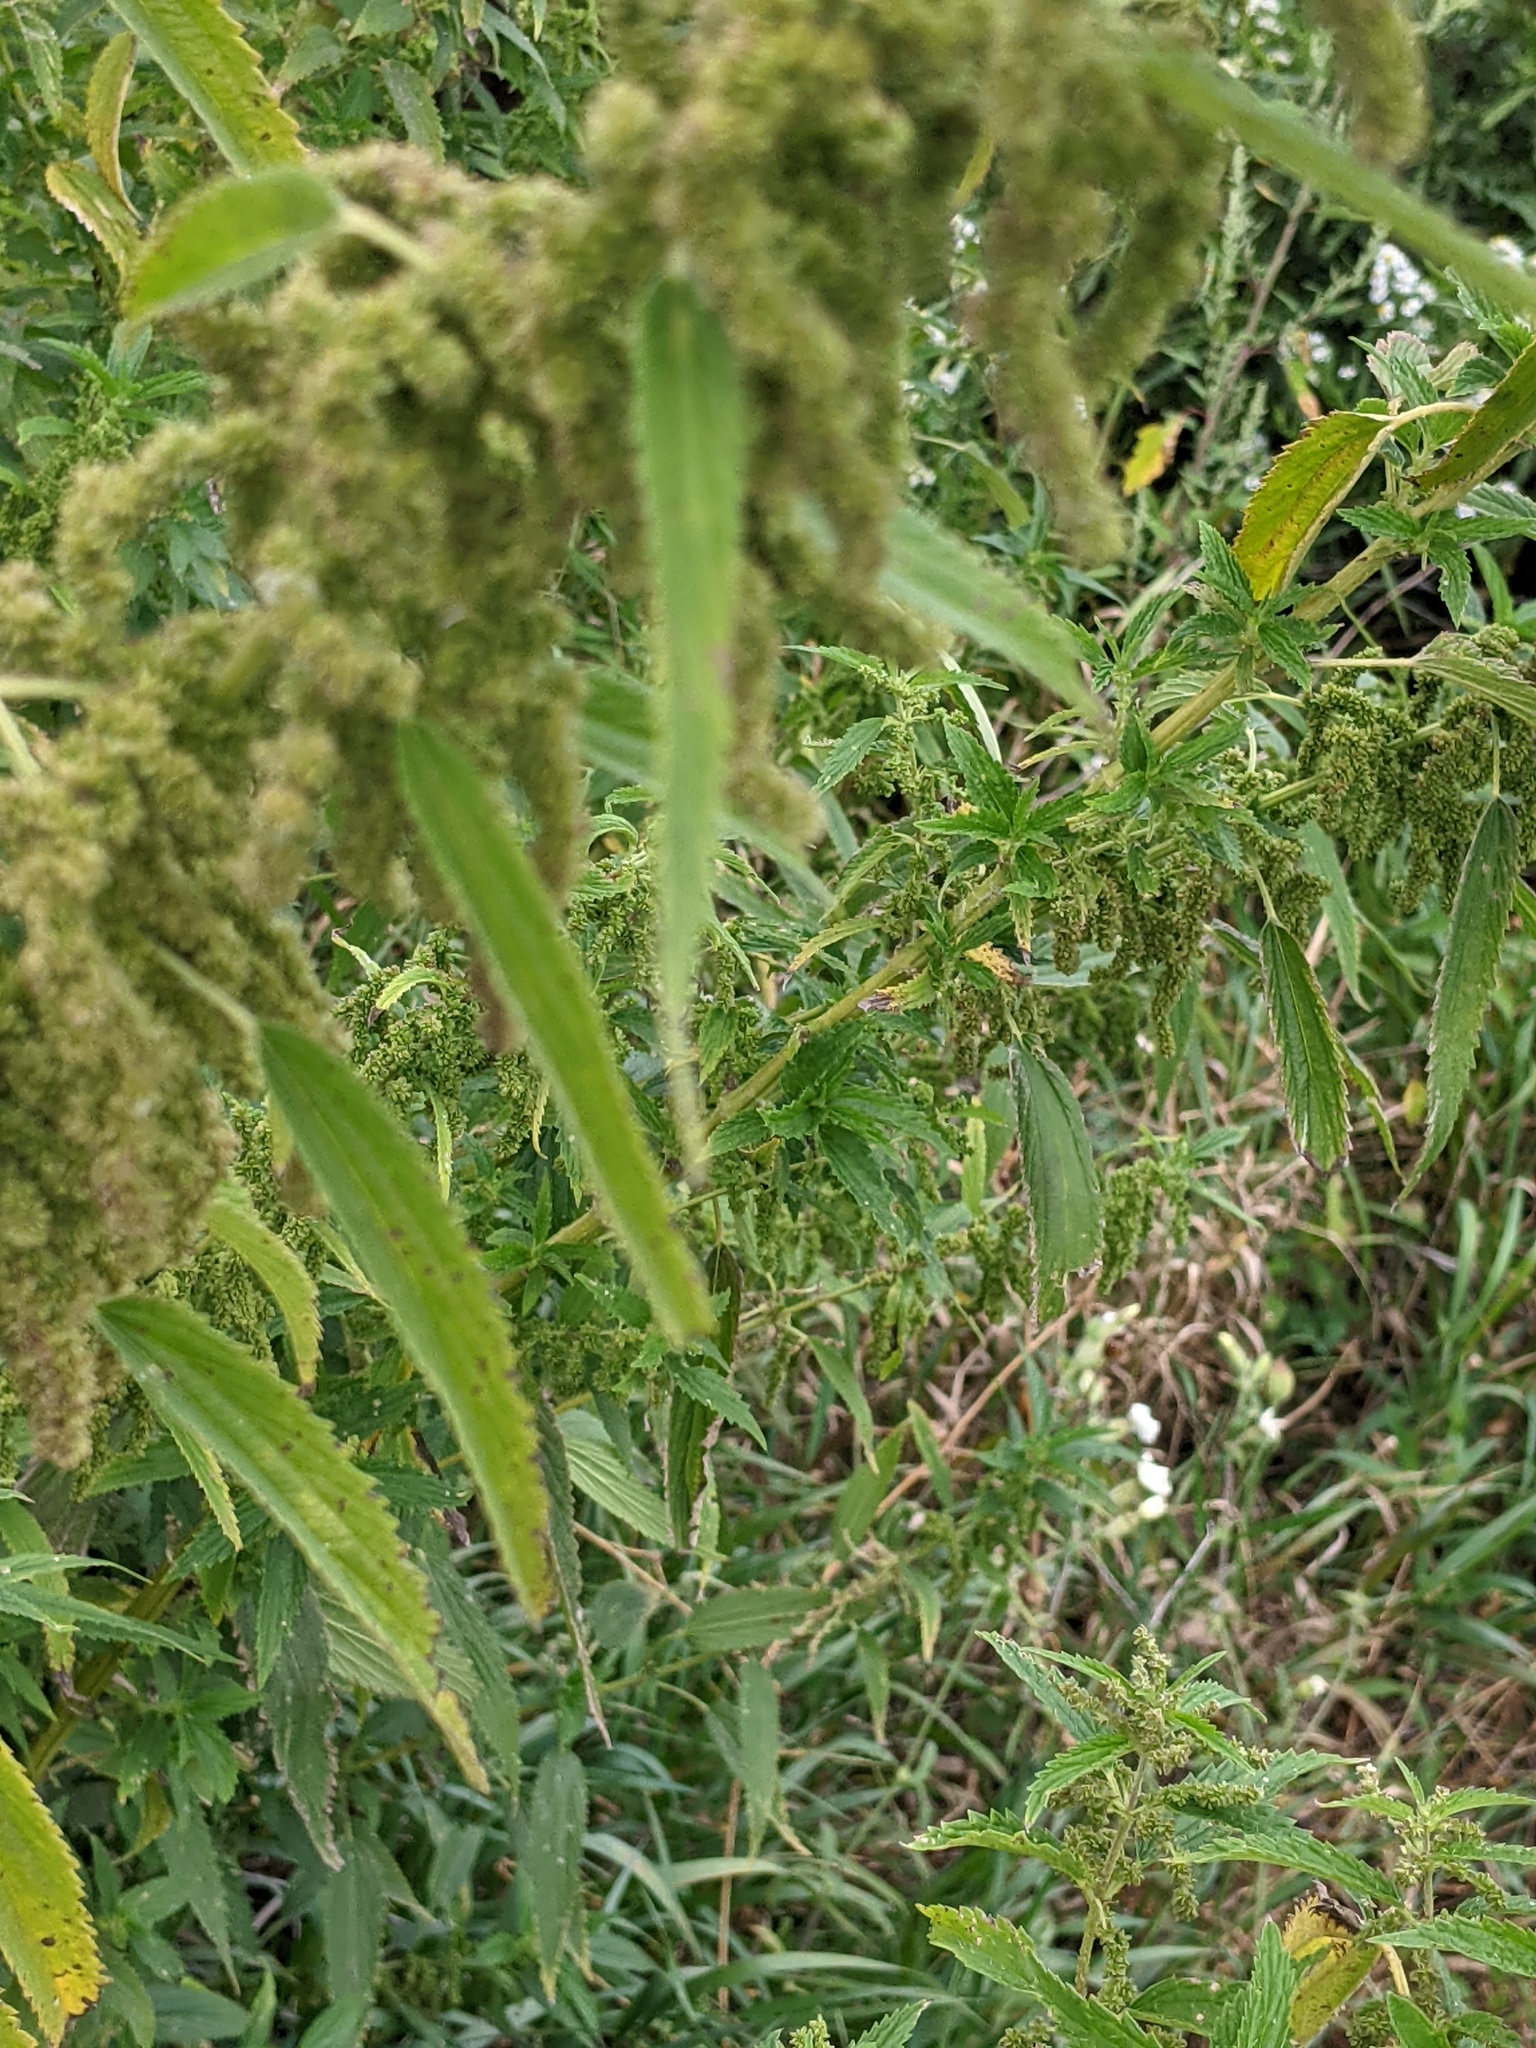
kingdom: Plantae
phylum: Tracheophyta
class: Magnoliopsida
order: Rosales
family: Urticaceae
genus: Urtica
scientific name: Urtica dioica
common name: Common nettle
